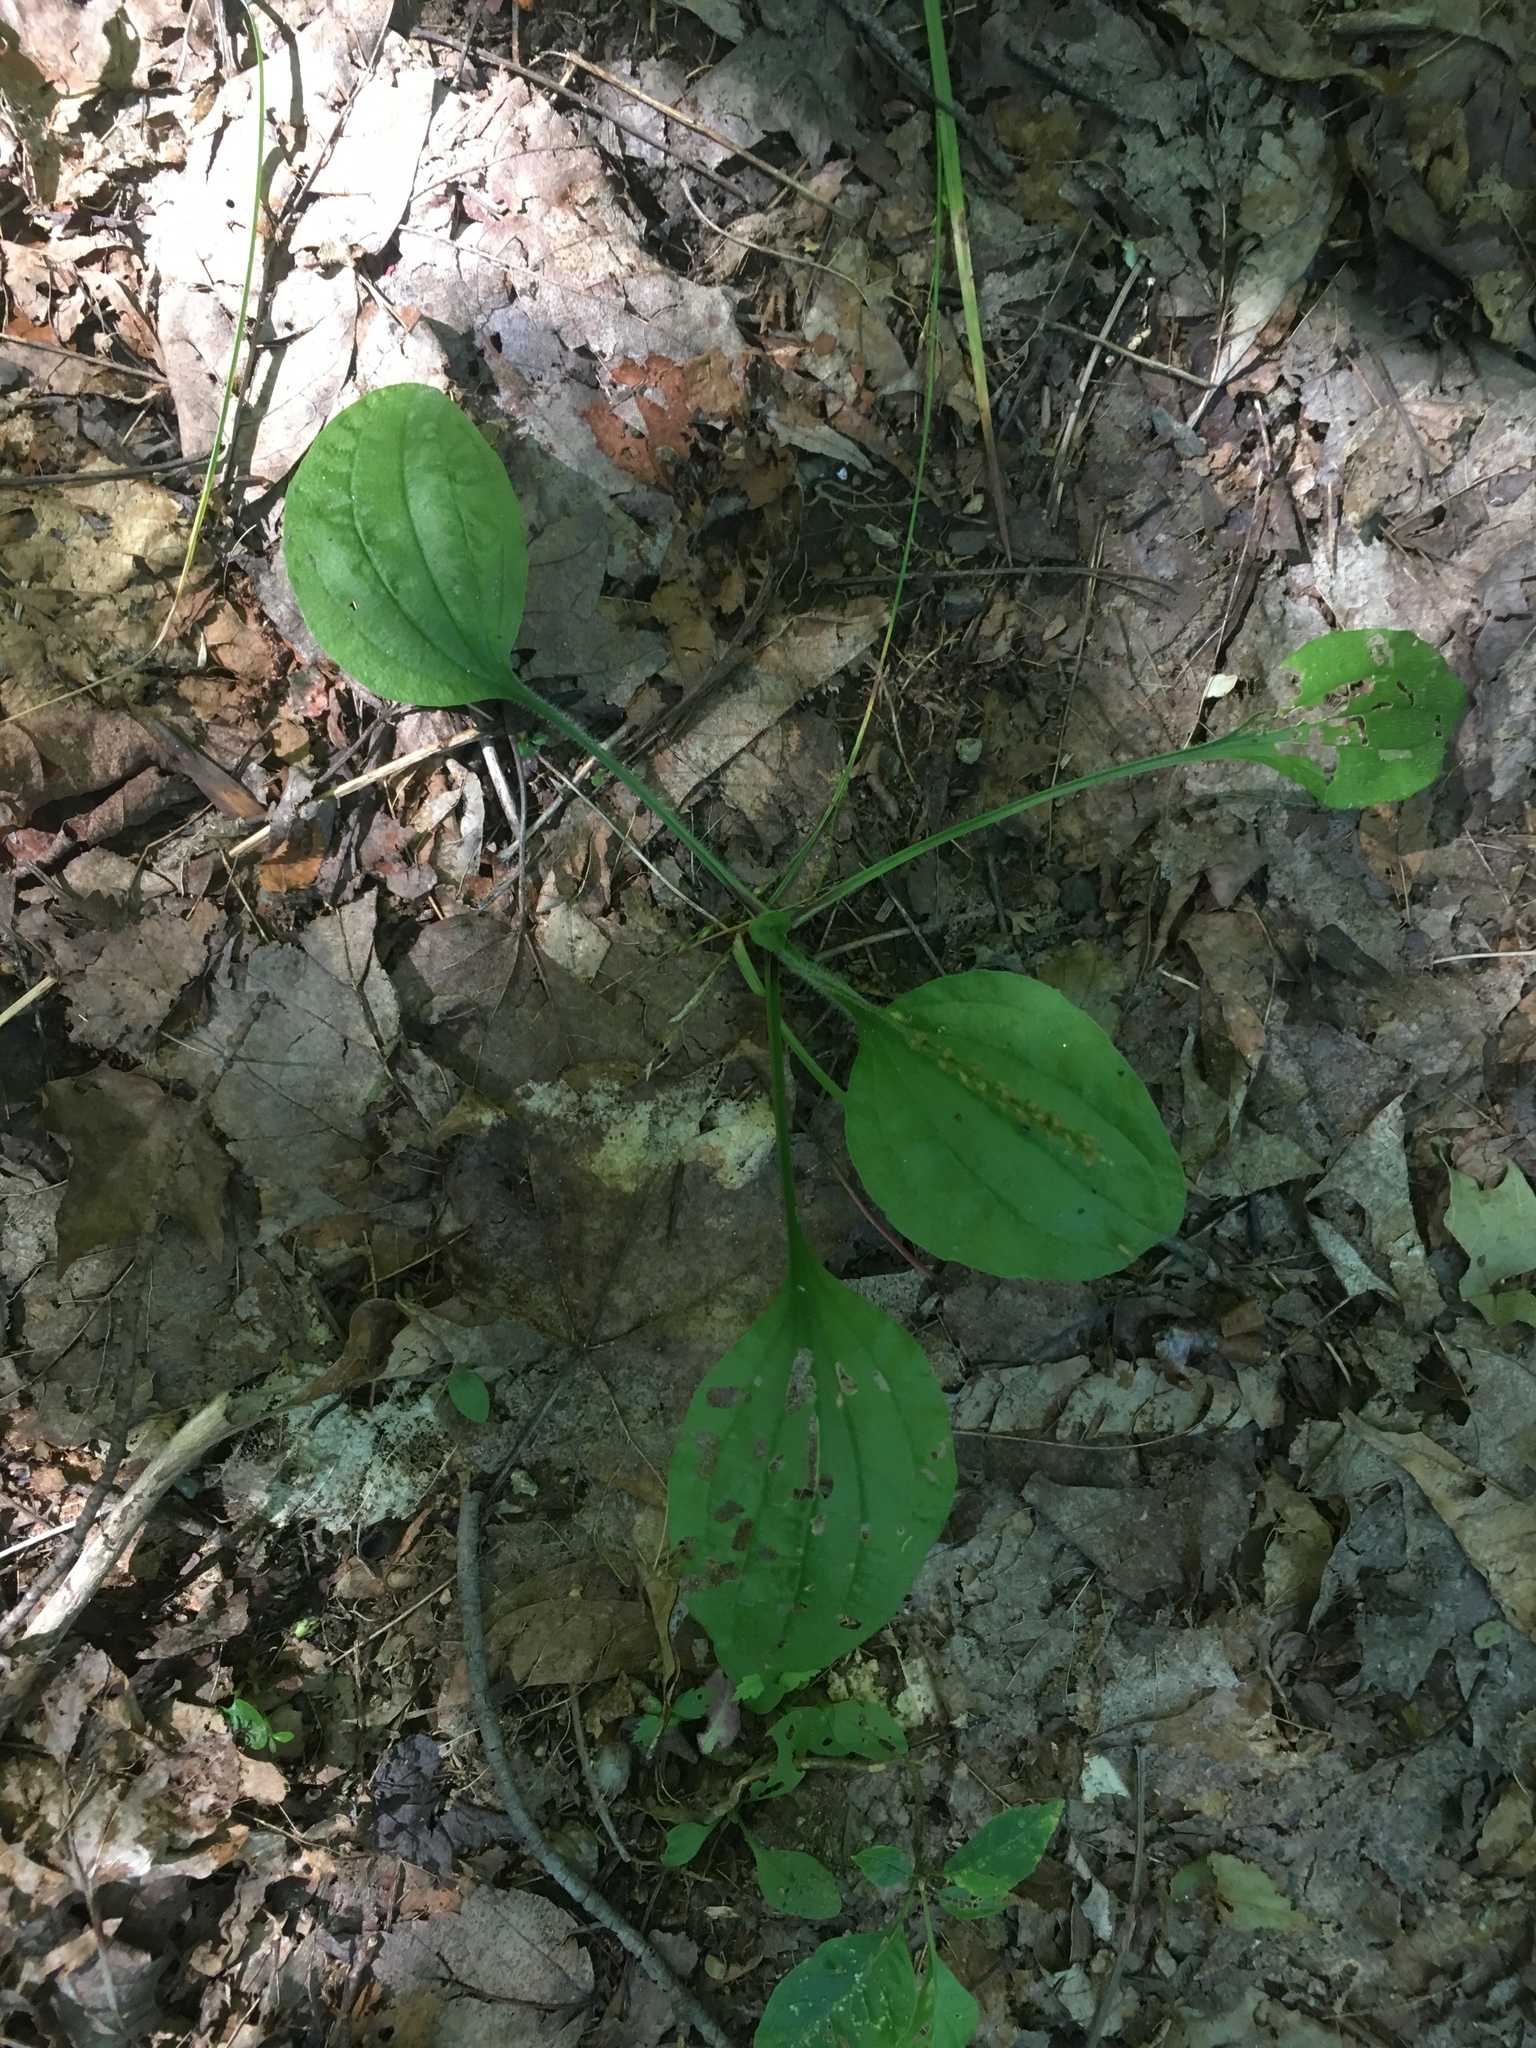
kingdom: Plantae
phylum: Tracheophyta
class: Magnoliopsida
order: Lamiales
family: Plantaginaceae
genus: Plantago
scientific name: Plantago major
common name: Common plantain
